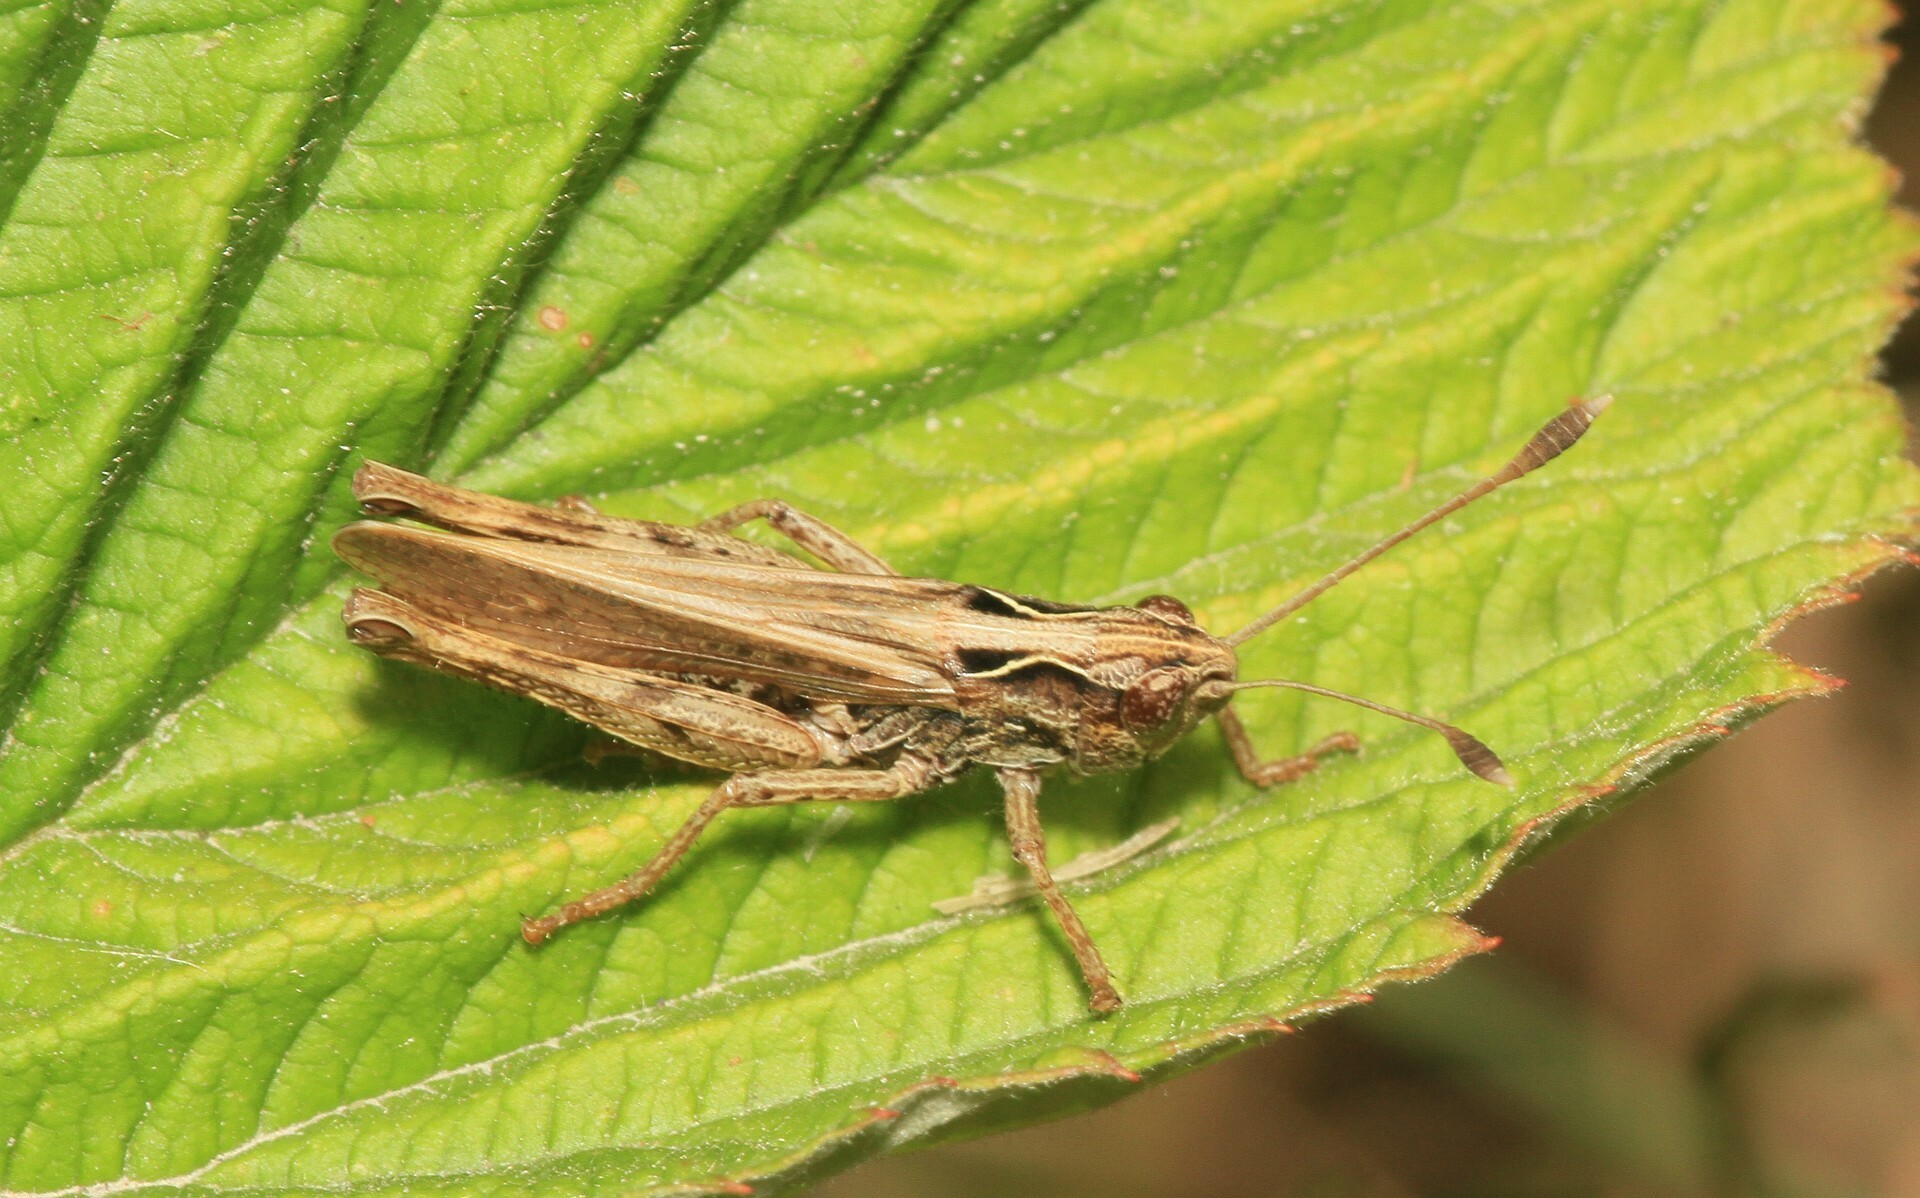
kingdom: Animalia
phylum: Arthropoda
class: Insecta
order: Orthoptera
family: Acrididae
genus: Gomphocerippus
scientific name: Gomphocerippus rufus
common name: Rufous grasshopper
